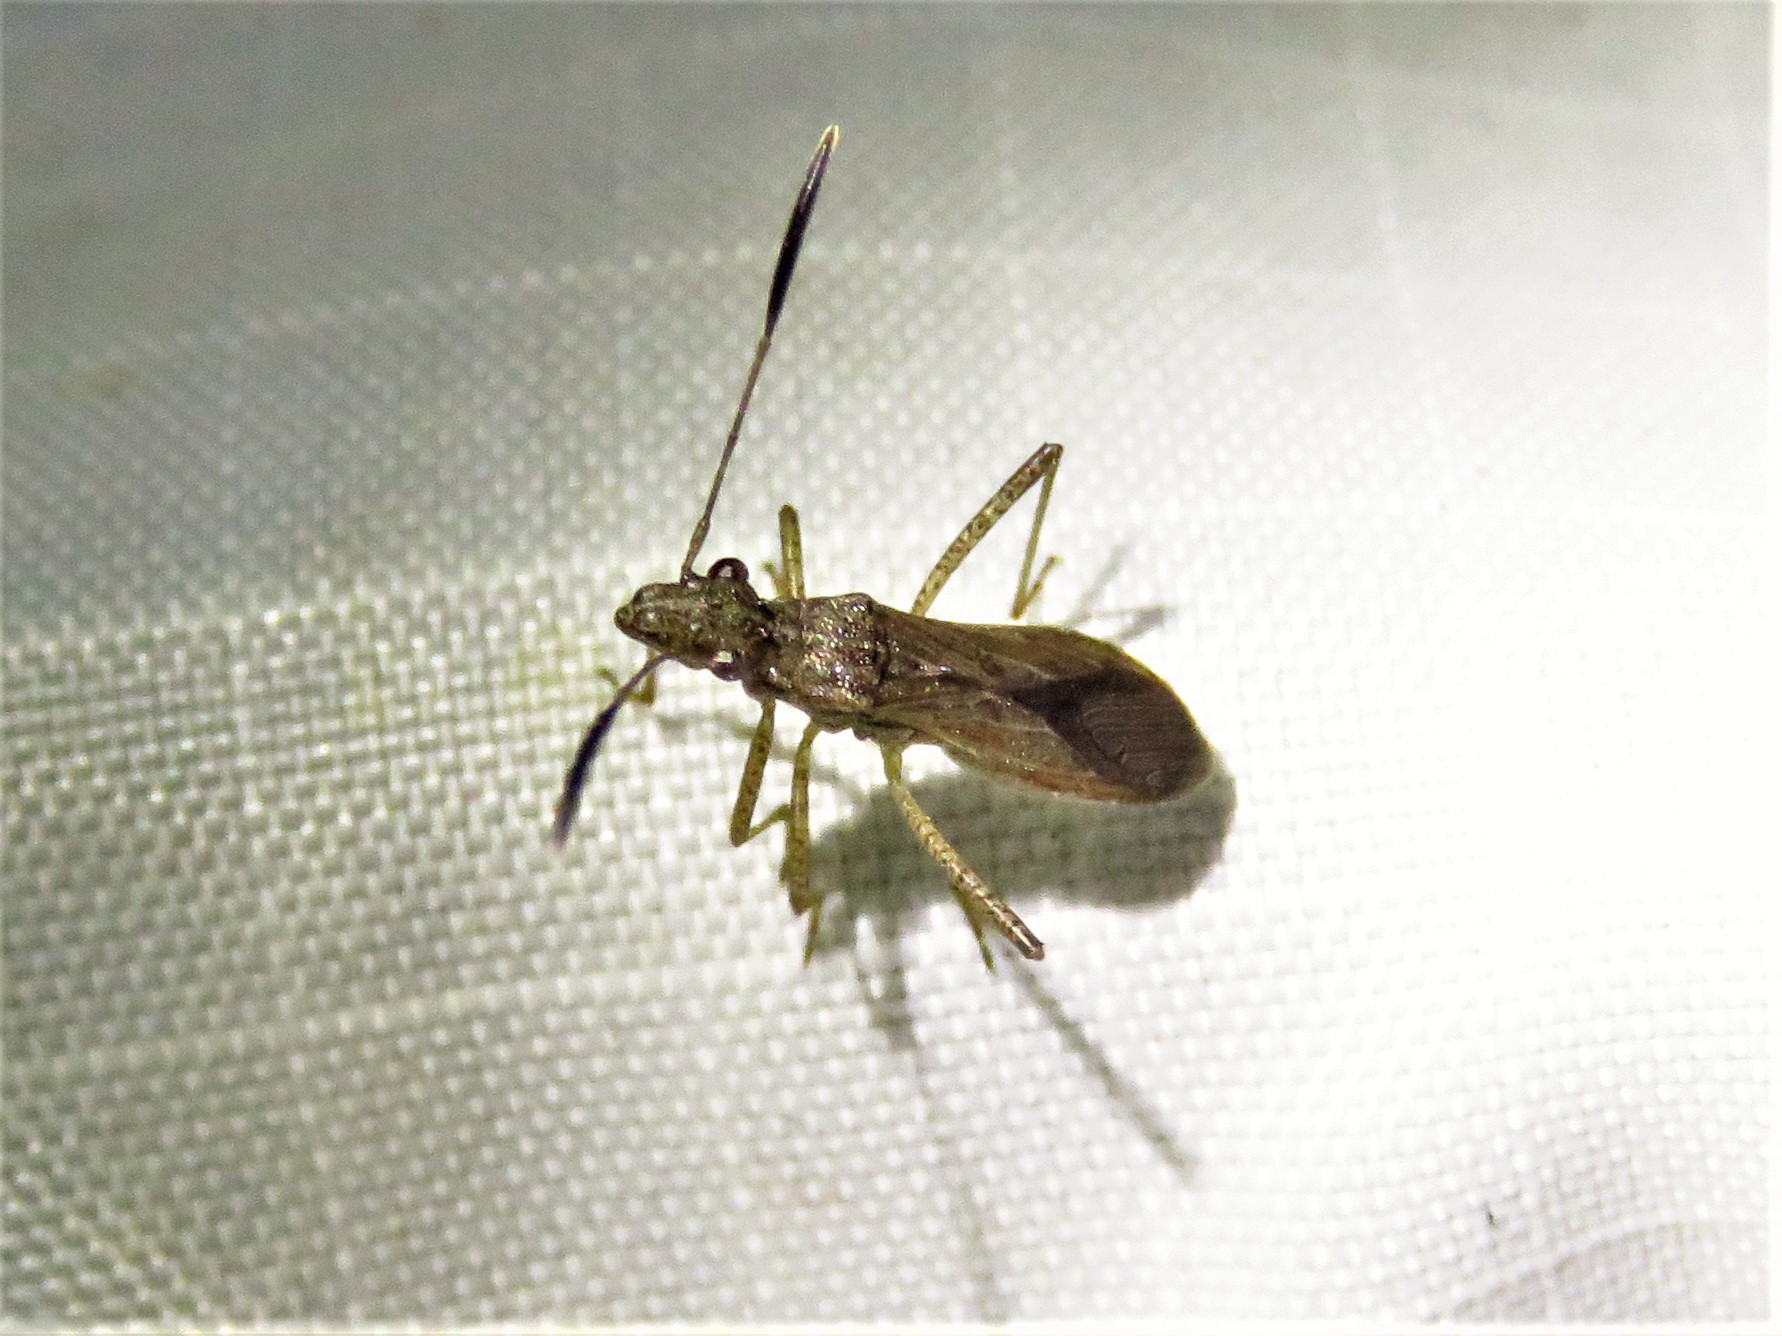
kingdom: Animalia
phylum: Arthropoda
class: Insecta
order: Hemiptera
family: Alydidae
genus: Esperanza
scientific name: Esperanza texana
